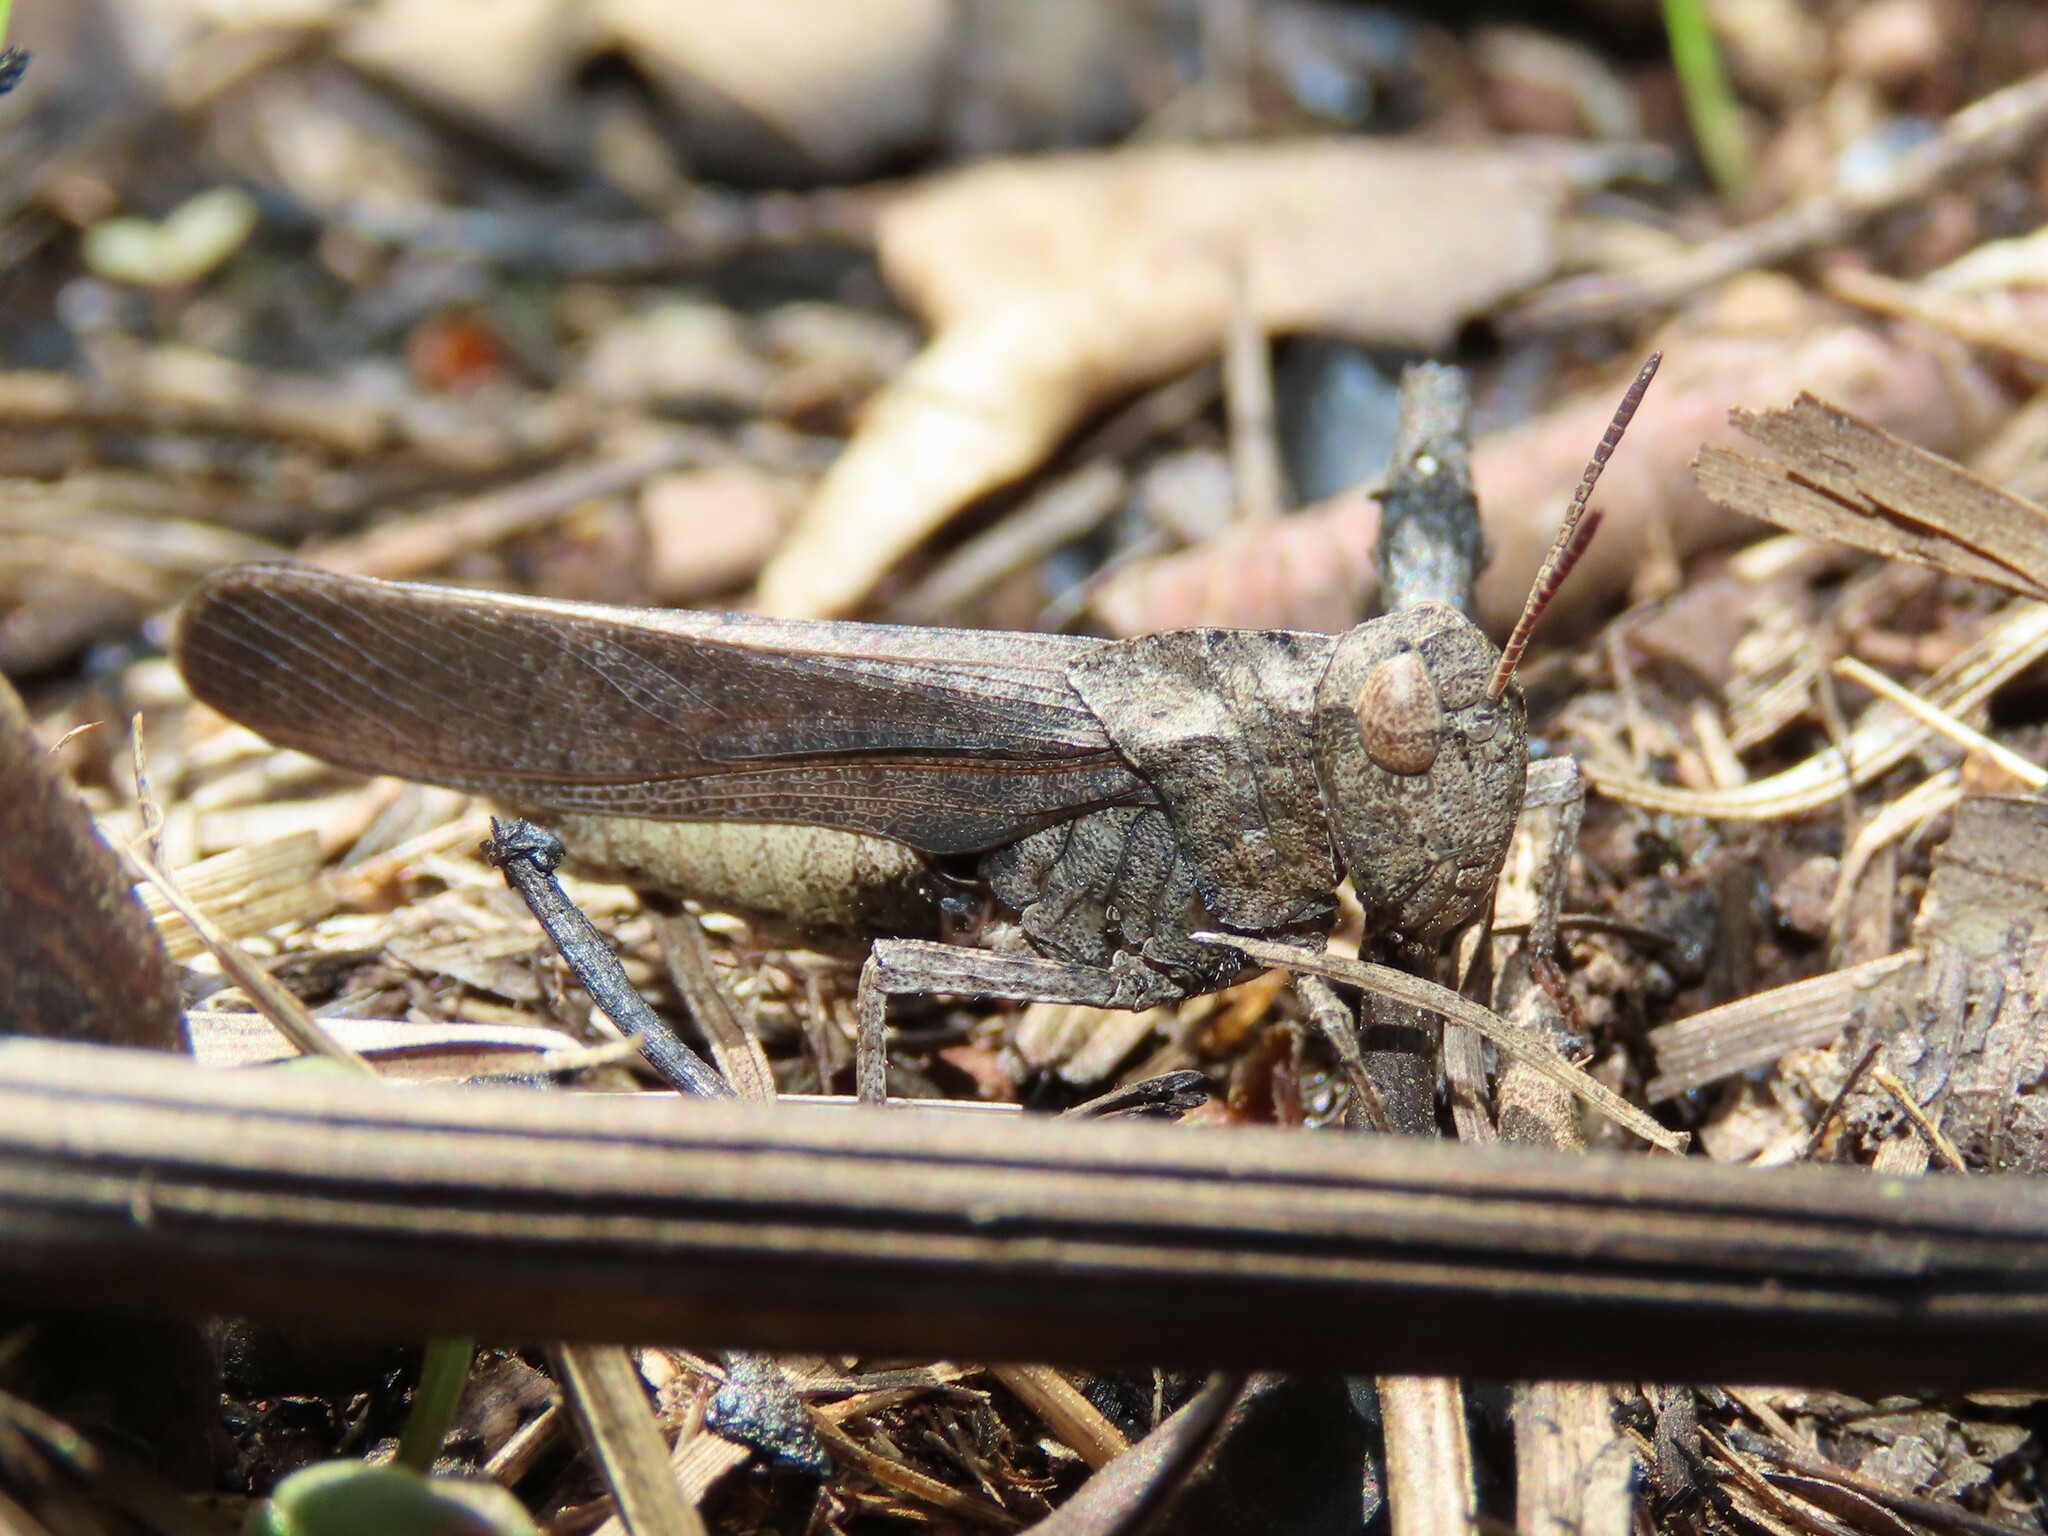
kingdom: Animalia
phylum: Arthropoda
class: Insecta
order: Orthoptera
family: Acrididae
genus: Arphia
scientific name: Arphia sulphurea
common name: Spring yellow-winged locust
